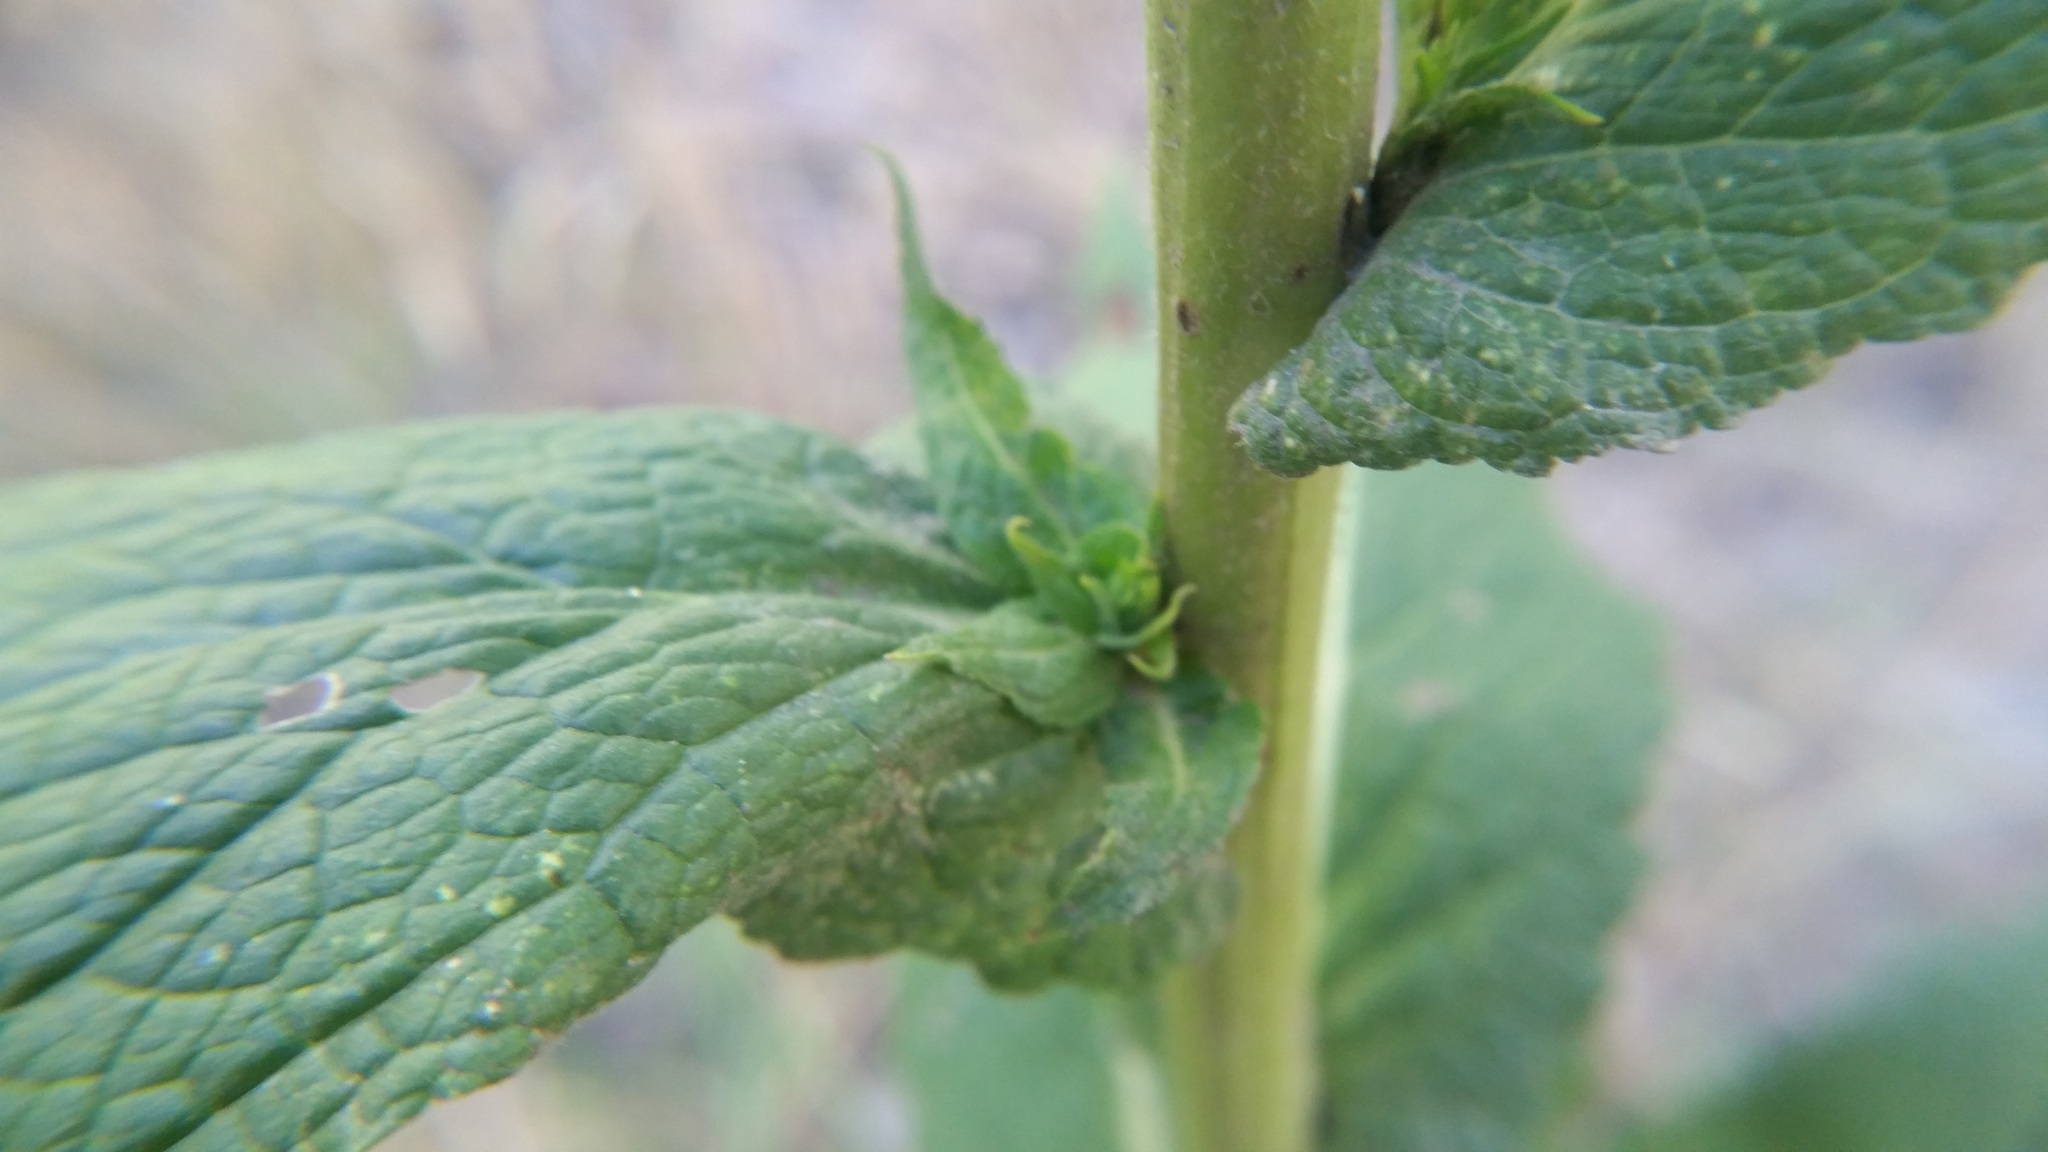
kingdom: Plantae
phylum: Tracheophyta
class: Magnoliopsida
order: Lamiales
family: Scrophulariaceae
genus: Verbascum
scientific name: Verbascum virgatum
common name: Twiggy mullein
